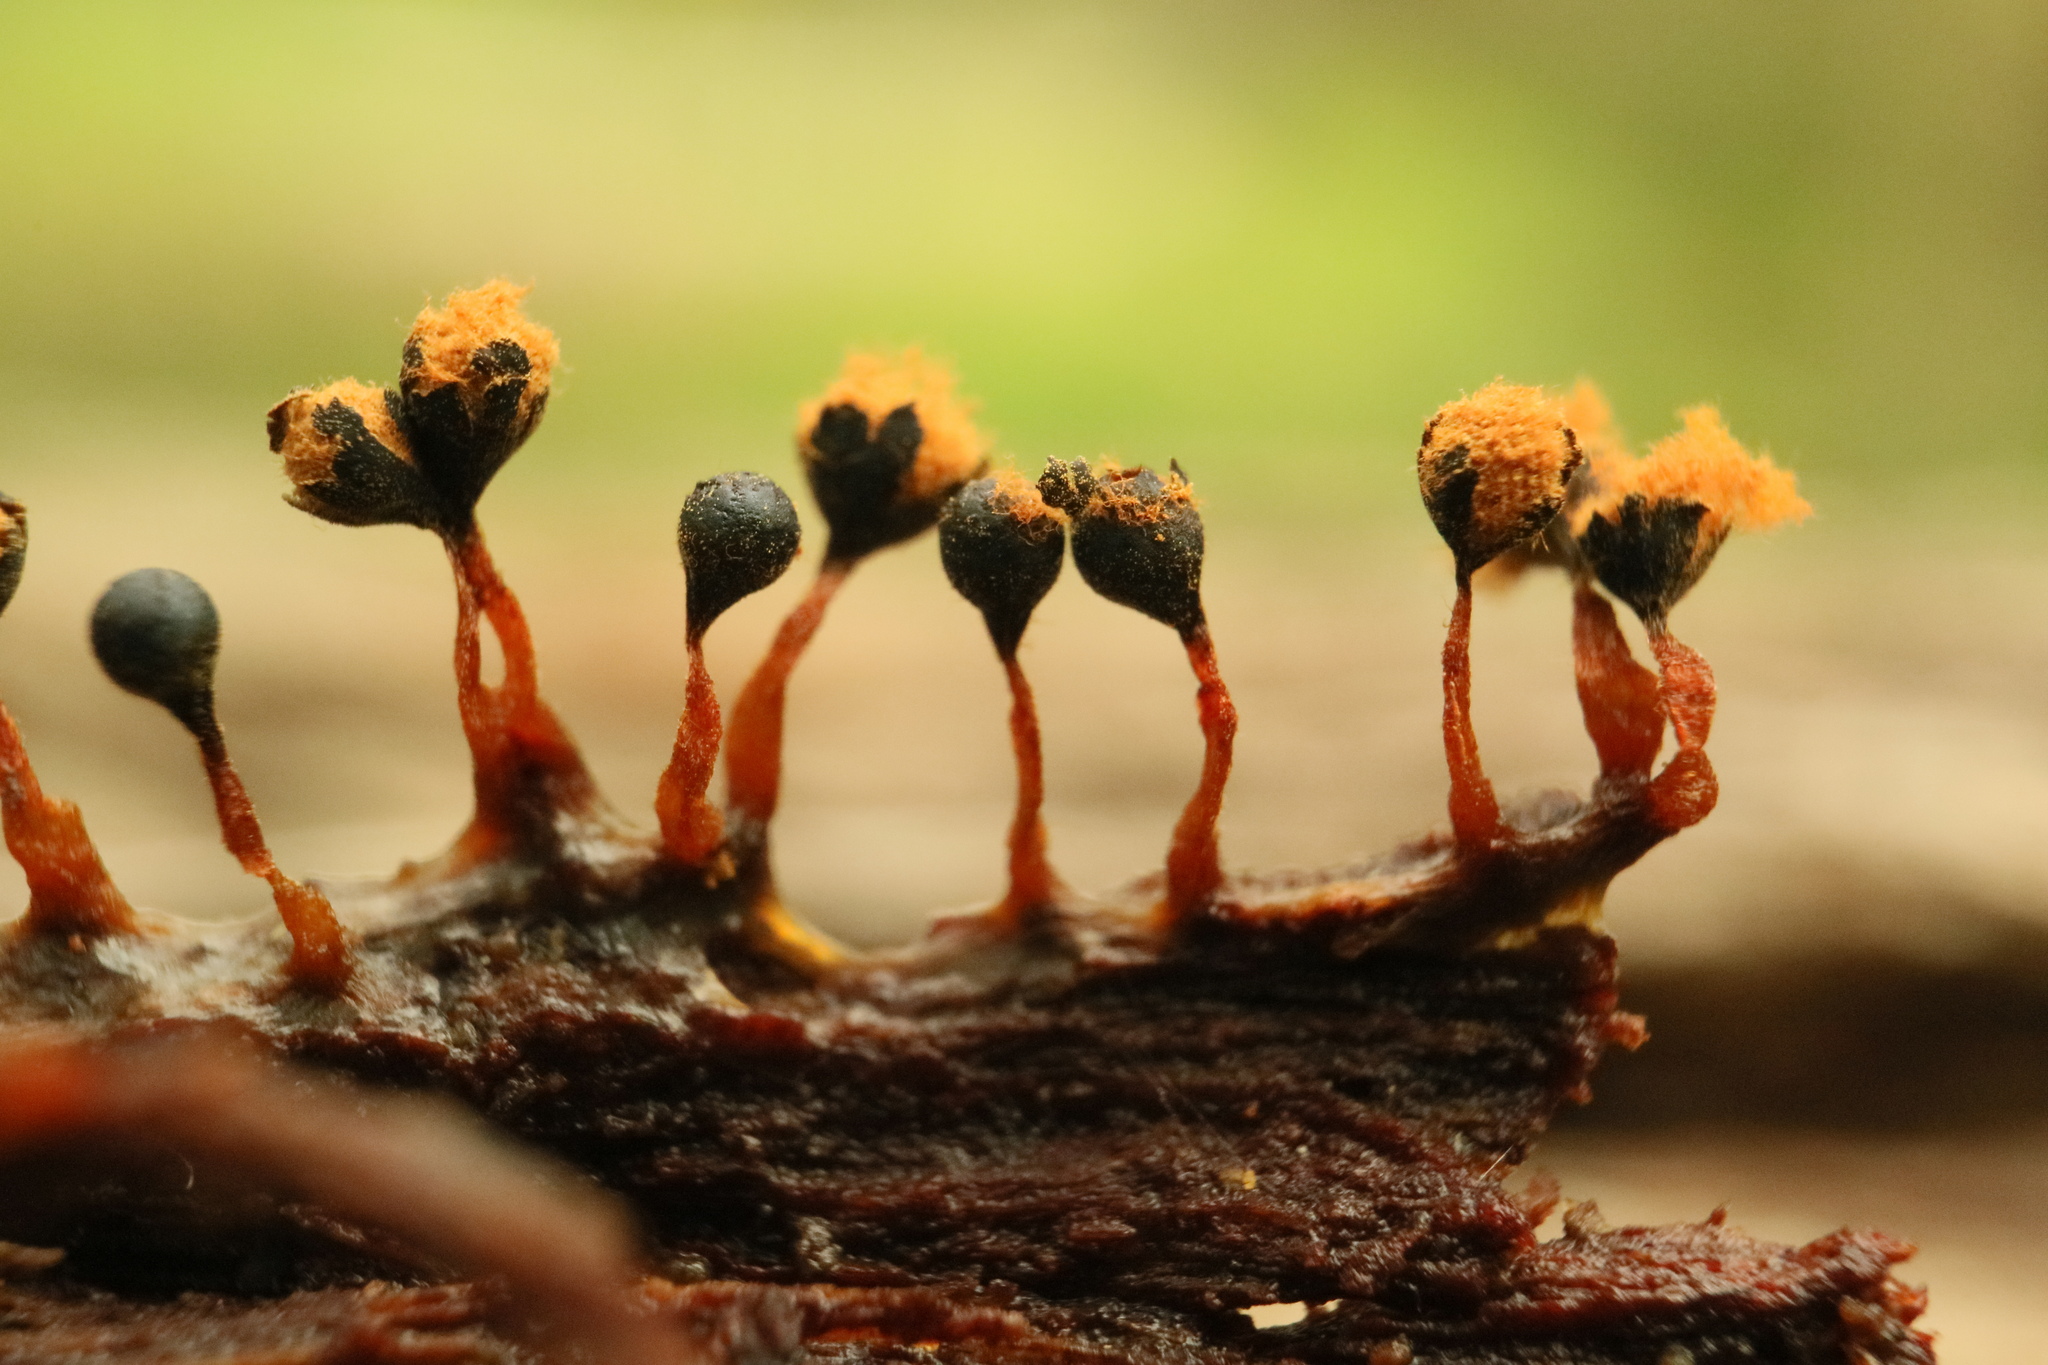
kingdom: Protozoa
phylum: Mycetozoa
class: Myxomycetes
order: Trichiales
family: Trichiaceae
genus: Metatrichia
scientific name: Metatrichia floriformis
